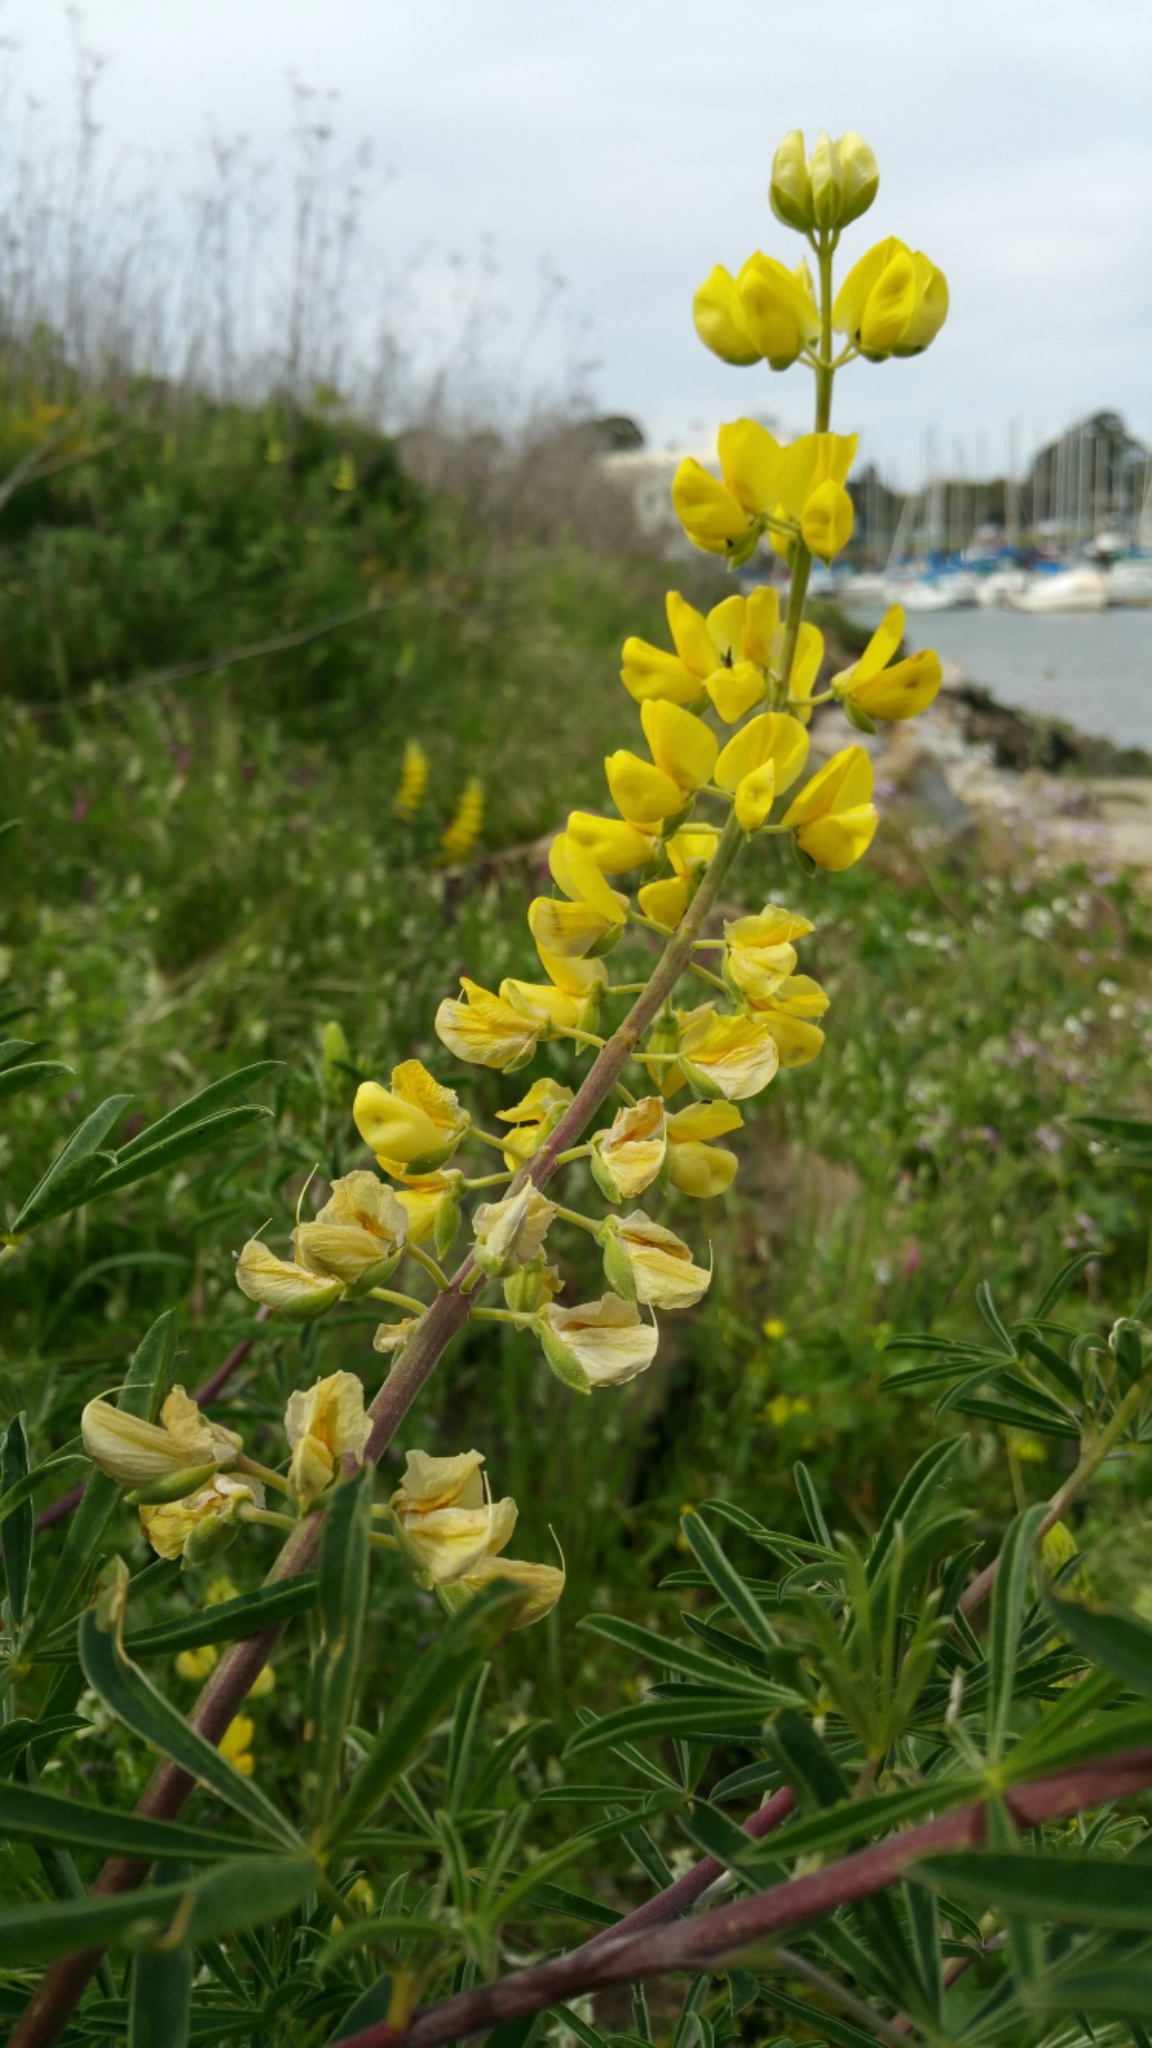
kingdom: Plantae
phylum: Tracheophyta
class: Magnoliopsida
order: Fabales
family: Fabaceae
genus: Lupinus
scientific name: Lupinus arboreus
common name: Yellow bush lupine
